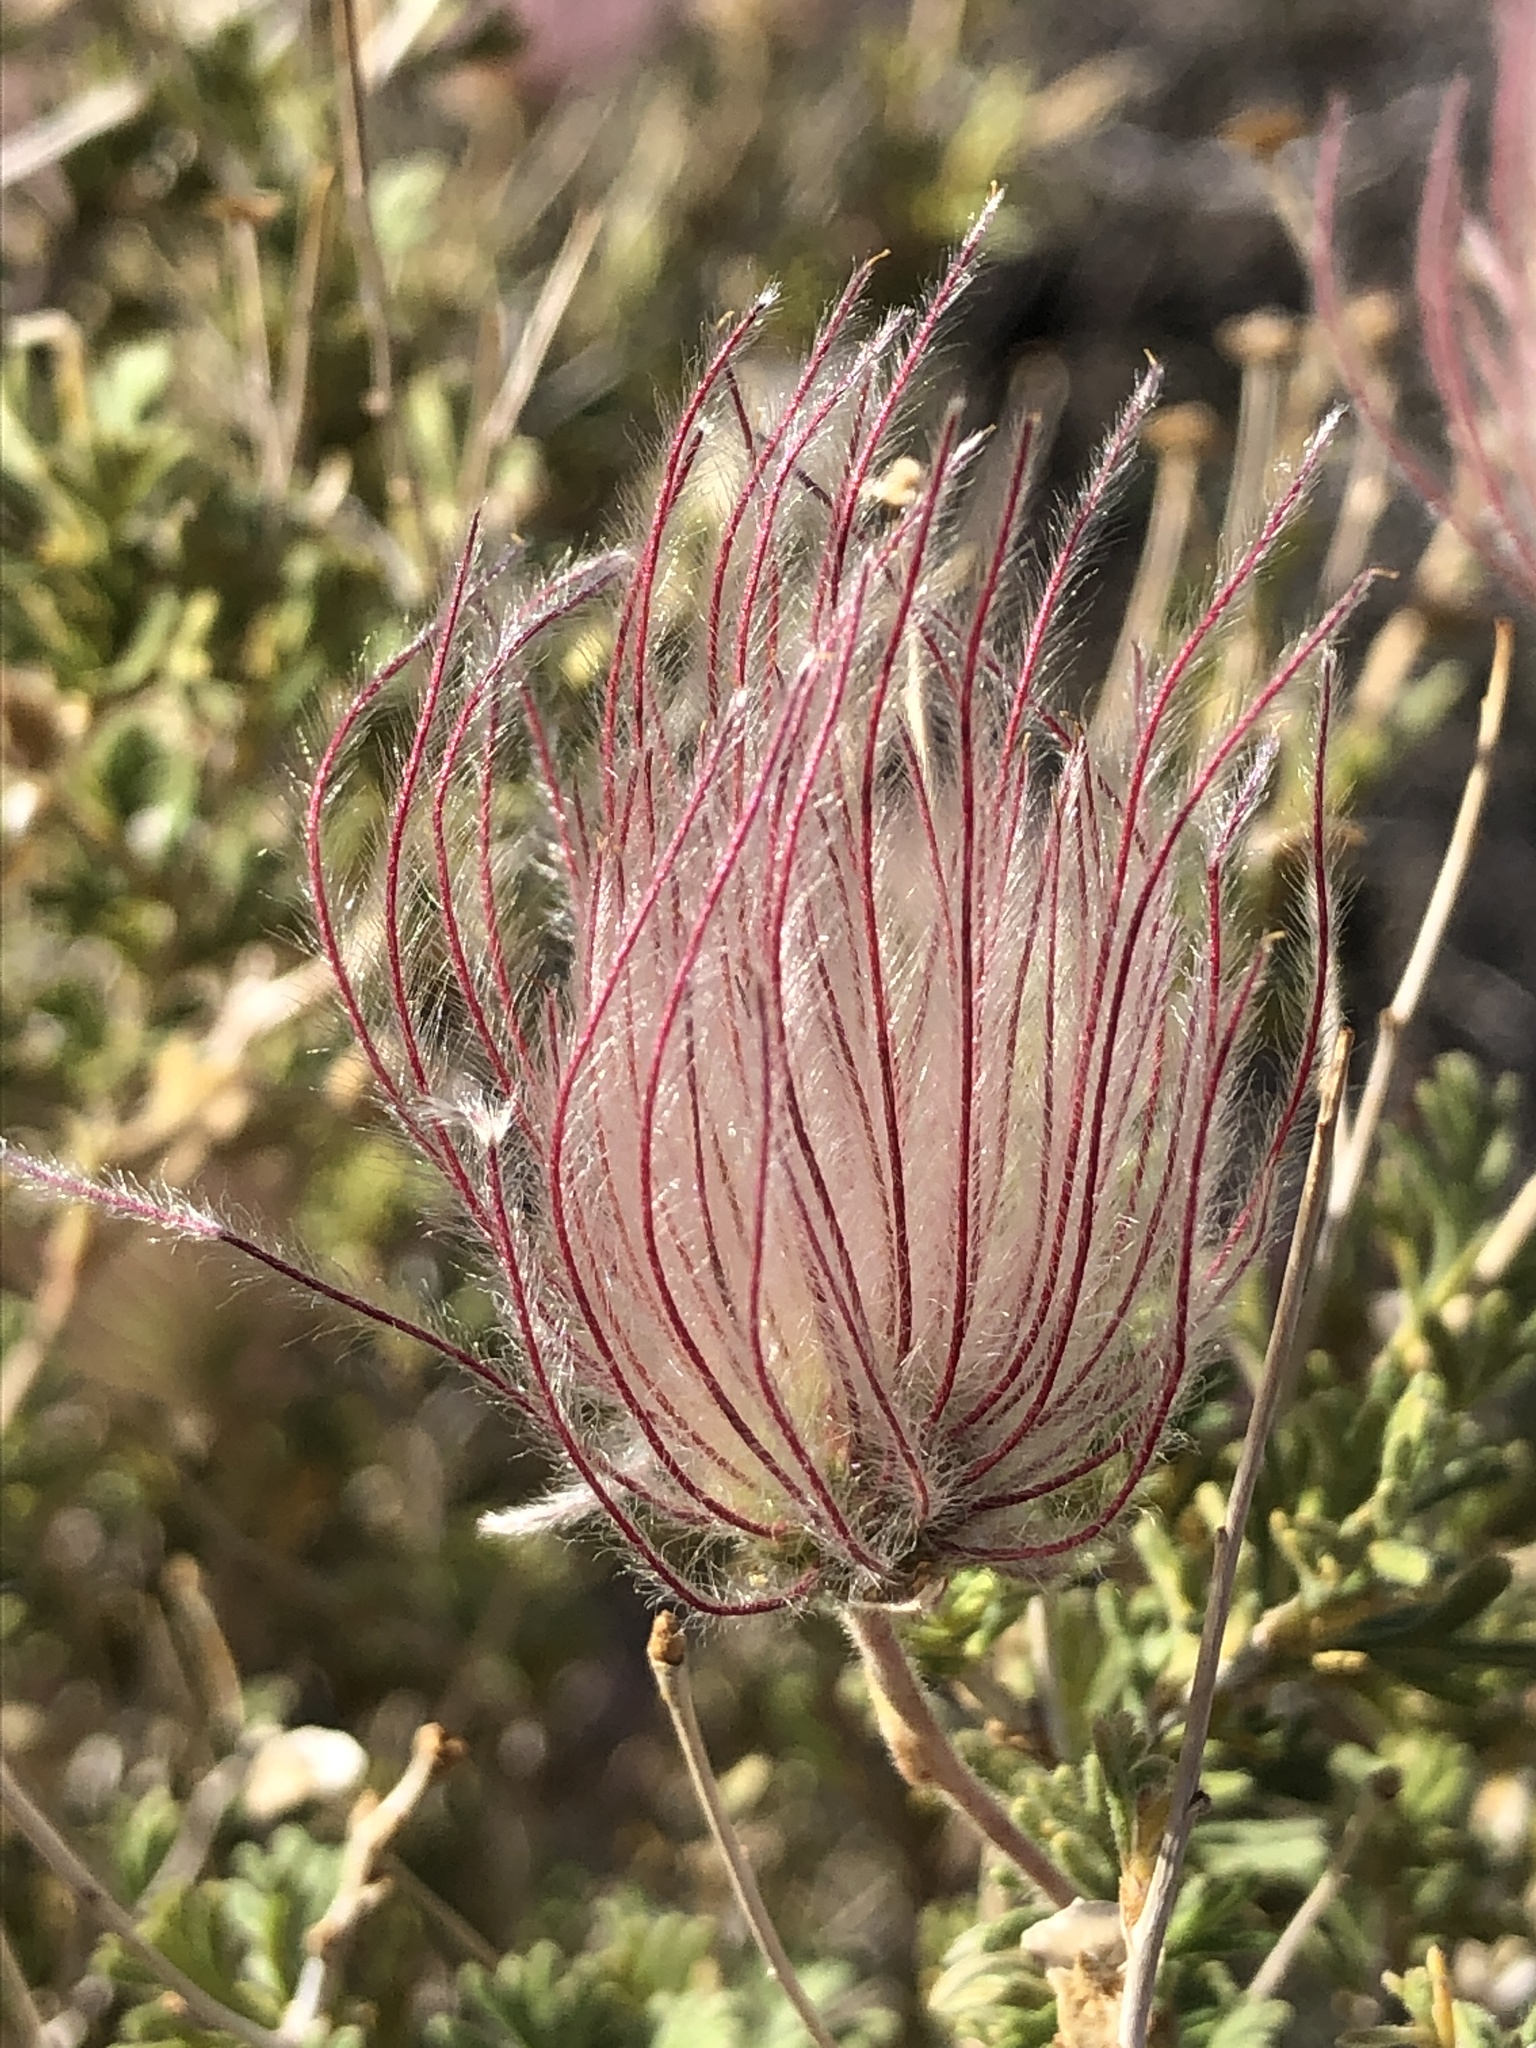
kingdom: Plantae
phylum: Tracheophyta
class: Magnoliopsida
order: Rosales
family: Rosaceae
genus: Fallugia
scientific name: Fallugia paradoxa
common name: Apache-plume
